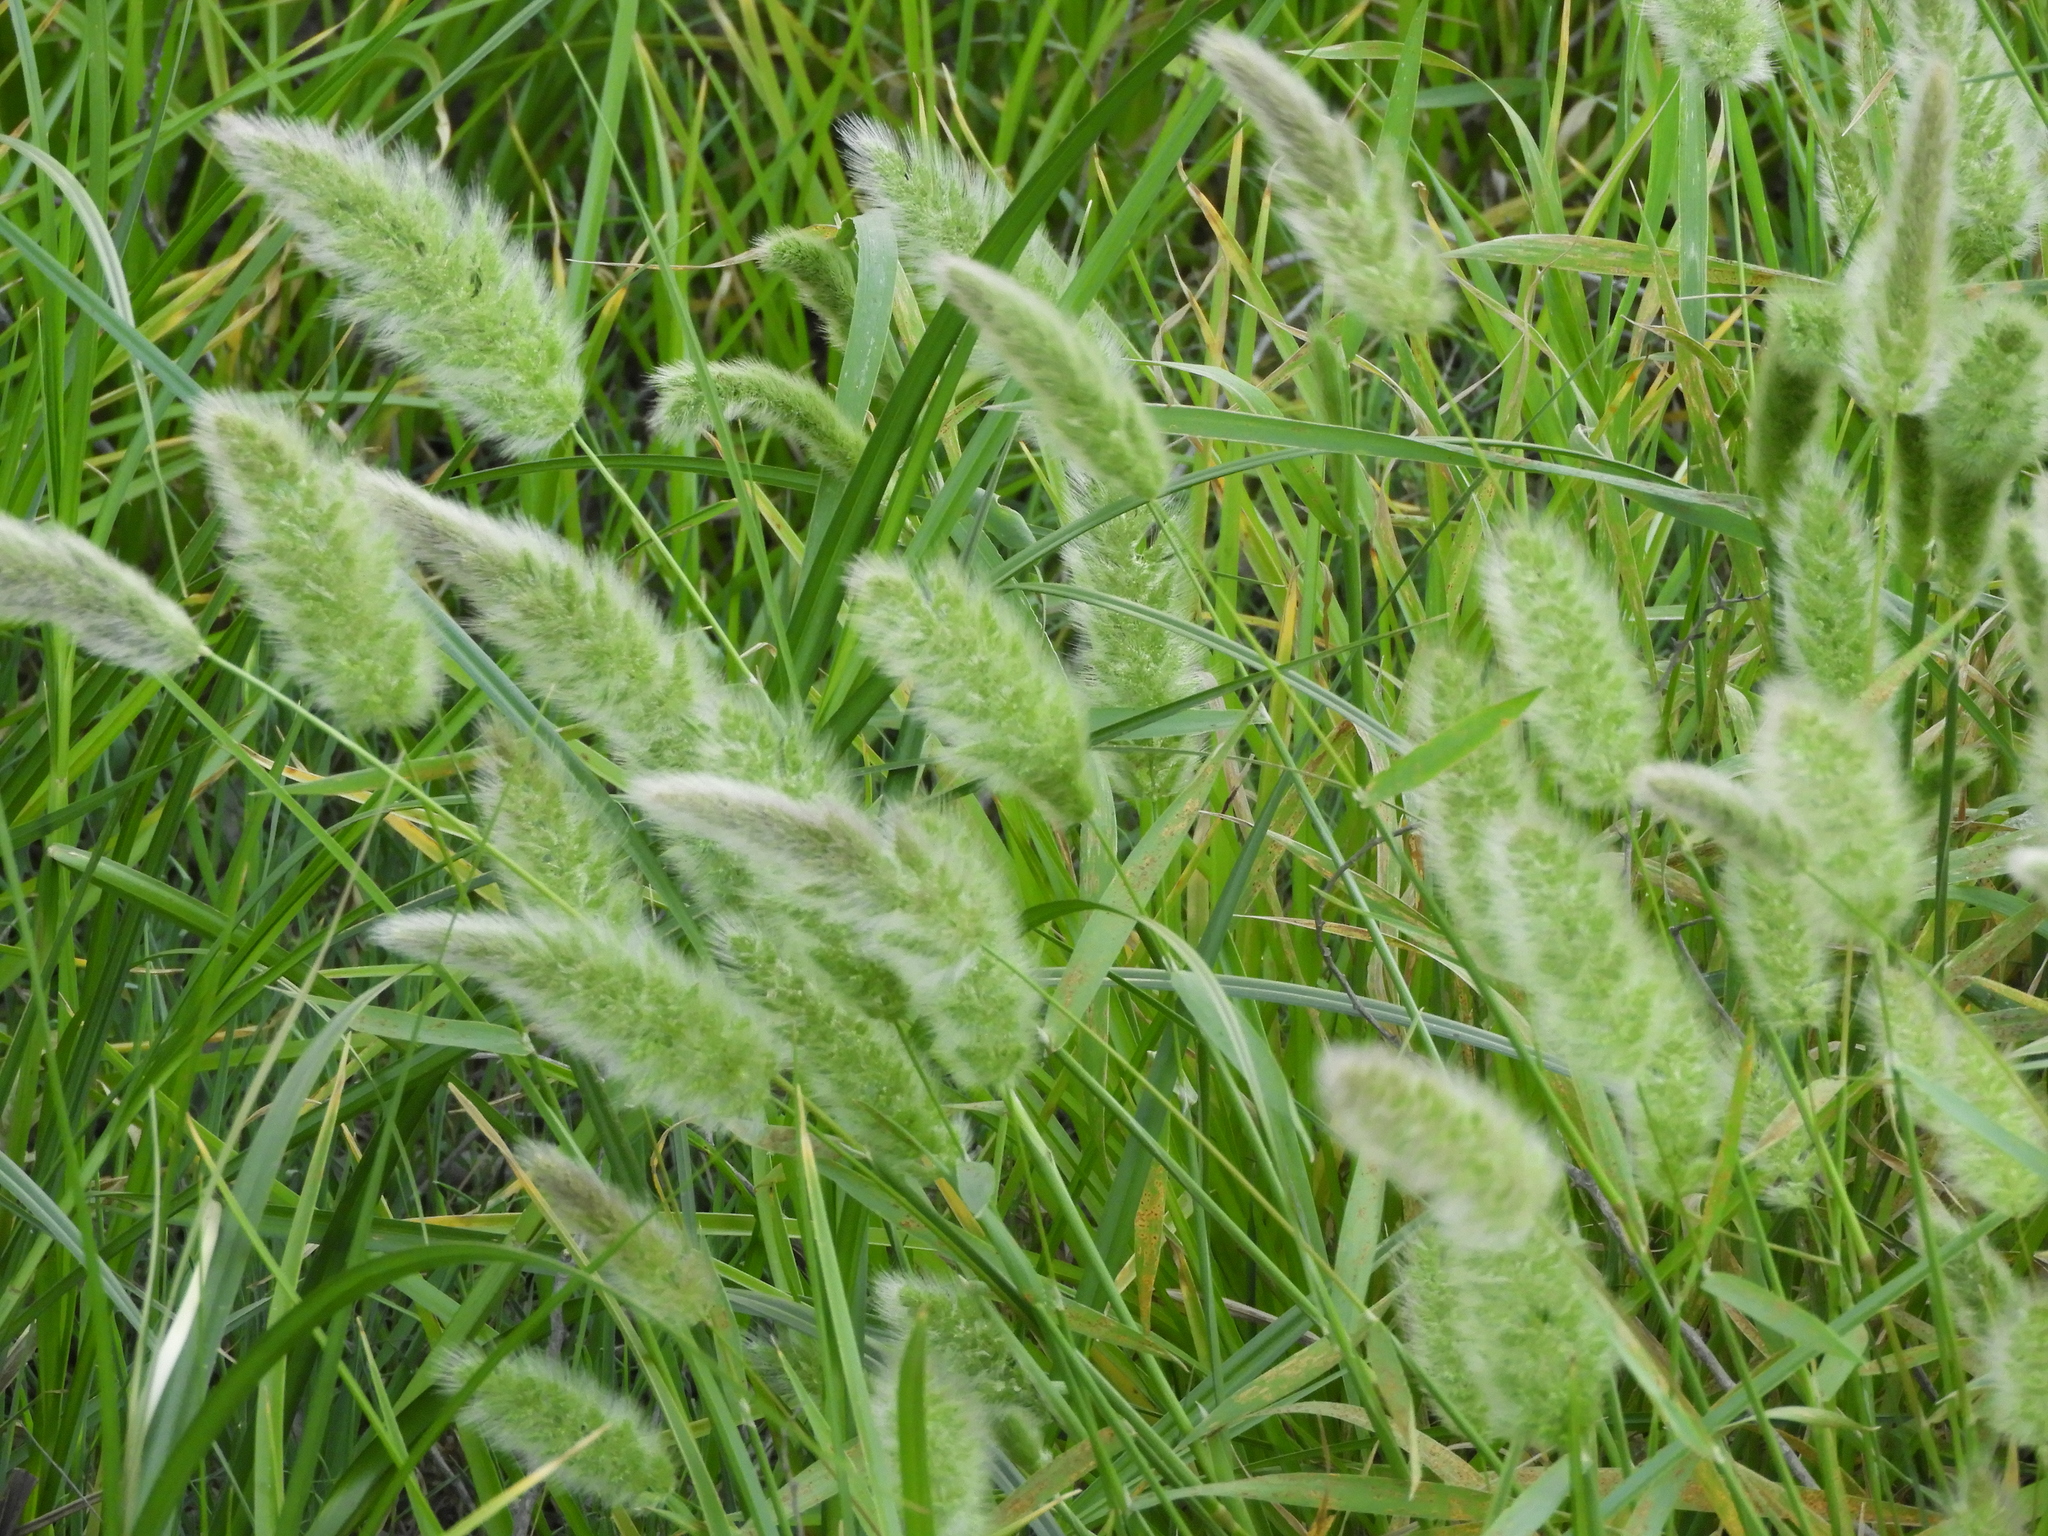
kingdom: Plantae
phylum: Tracheophyta
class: Liliopsida
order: Poales
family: Poaceae
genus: Polypogon
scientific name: Polypogon monspeliensis
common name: Annual rabbitsfoot grass
